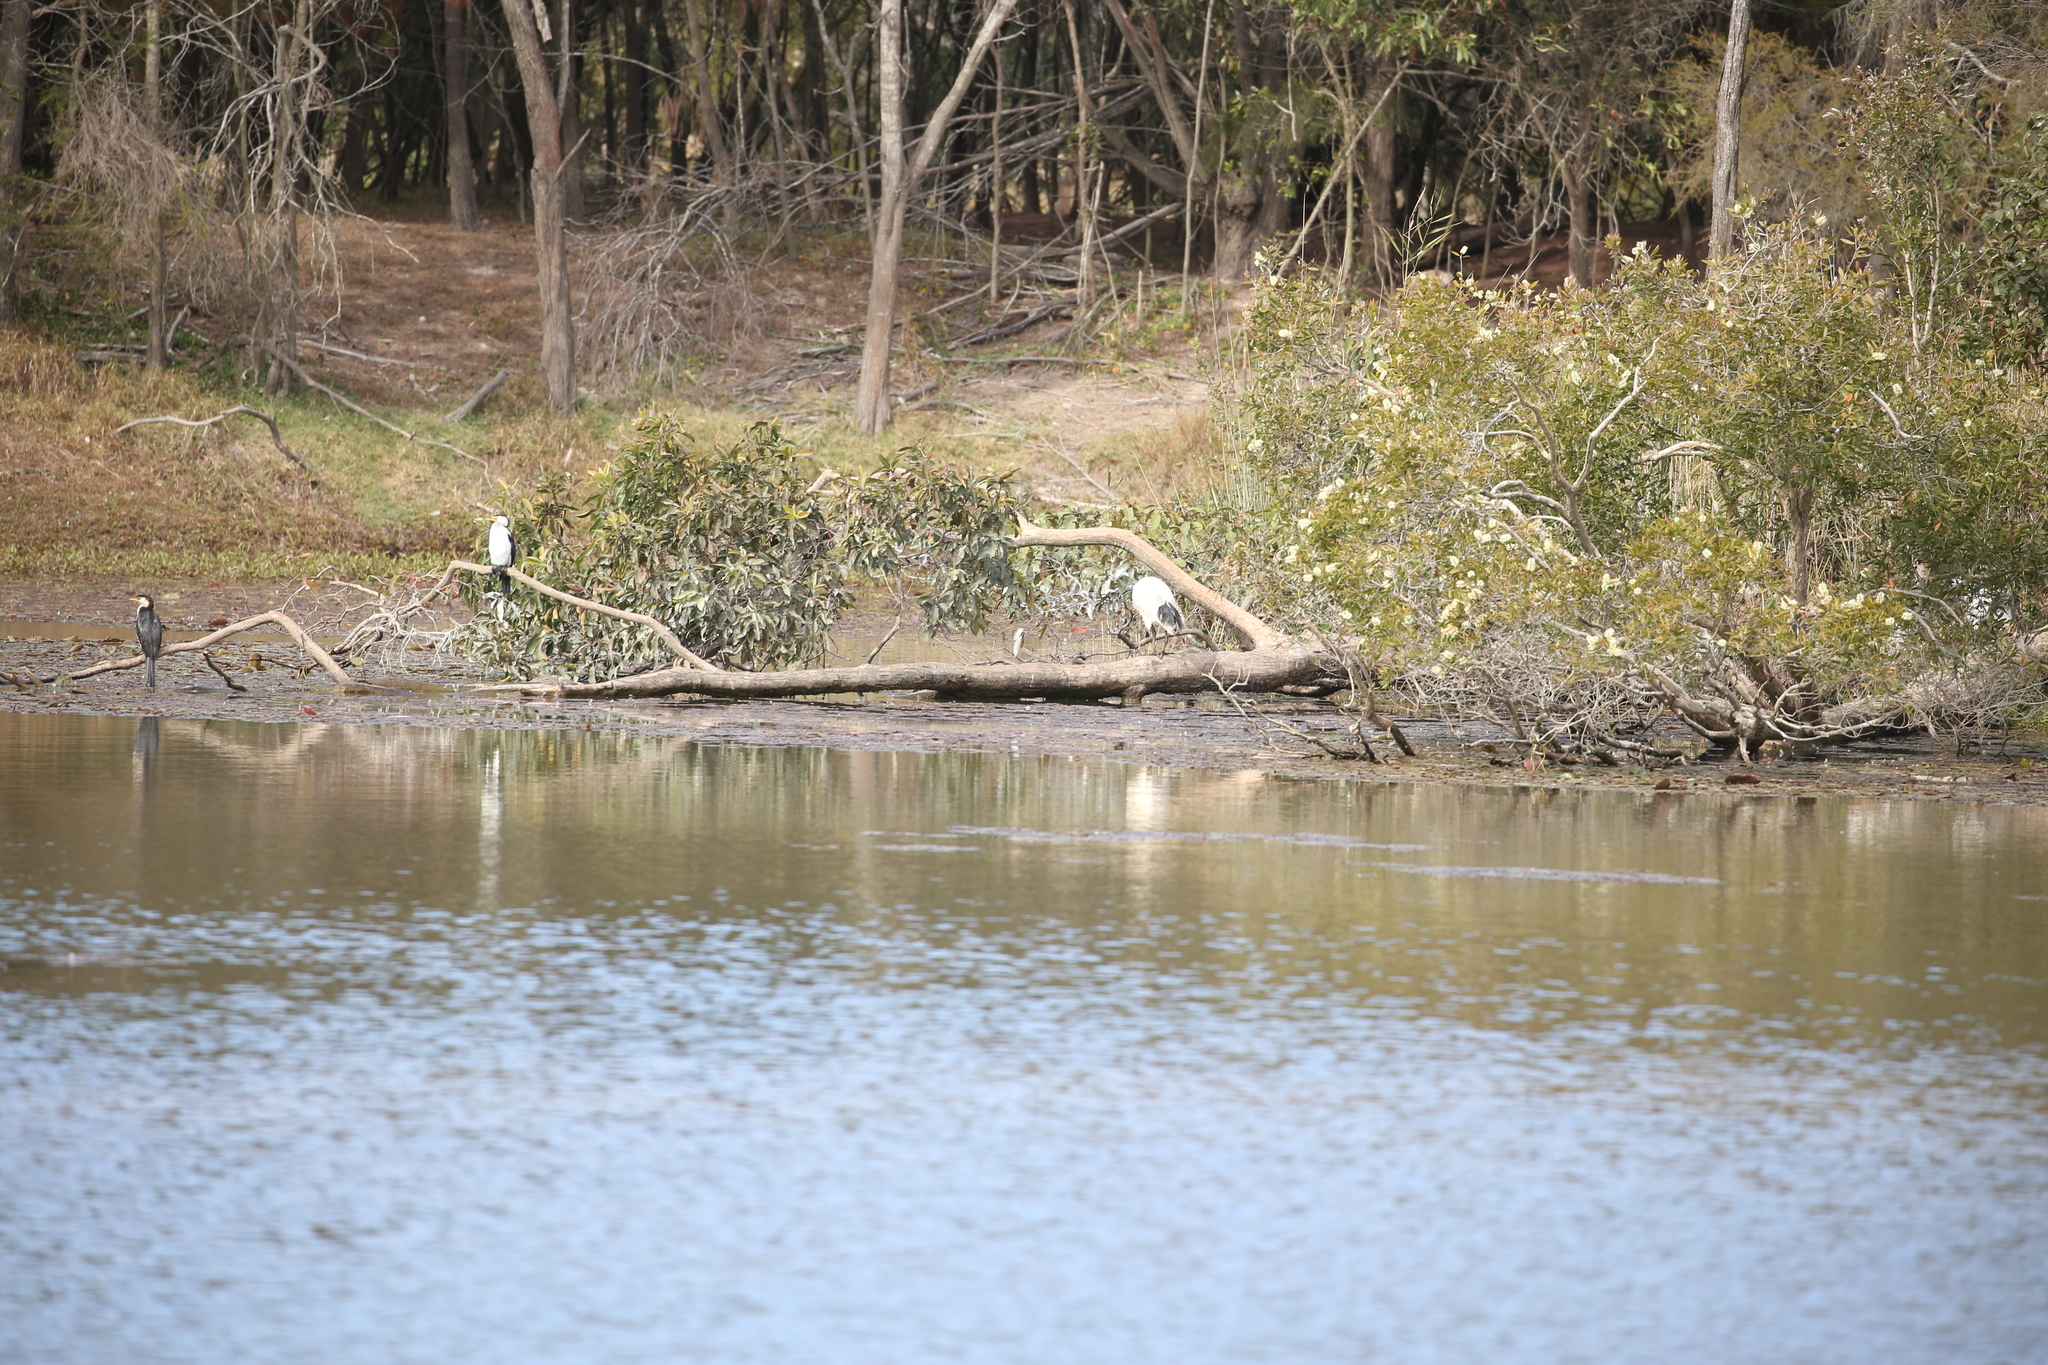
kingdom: Animalia
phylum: Chordata
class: Aves
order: Suliformes
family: Phalacrocoracidae
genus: Microcarbo
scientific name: Microcarbo melanoleucos
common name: Little pied cormorant
